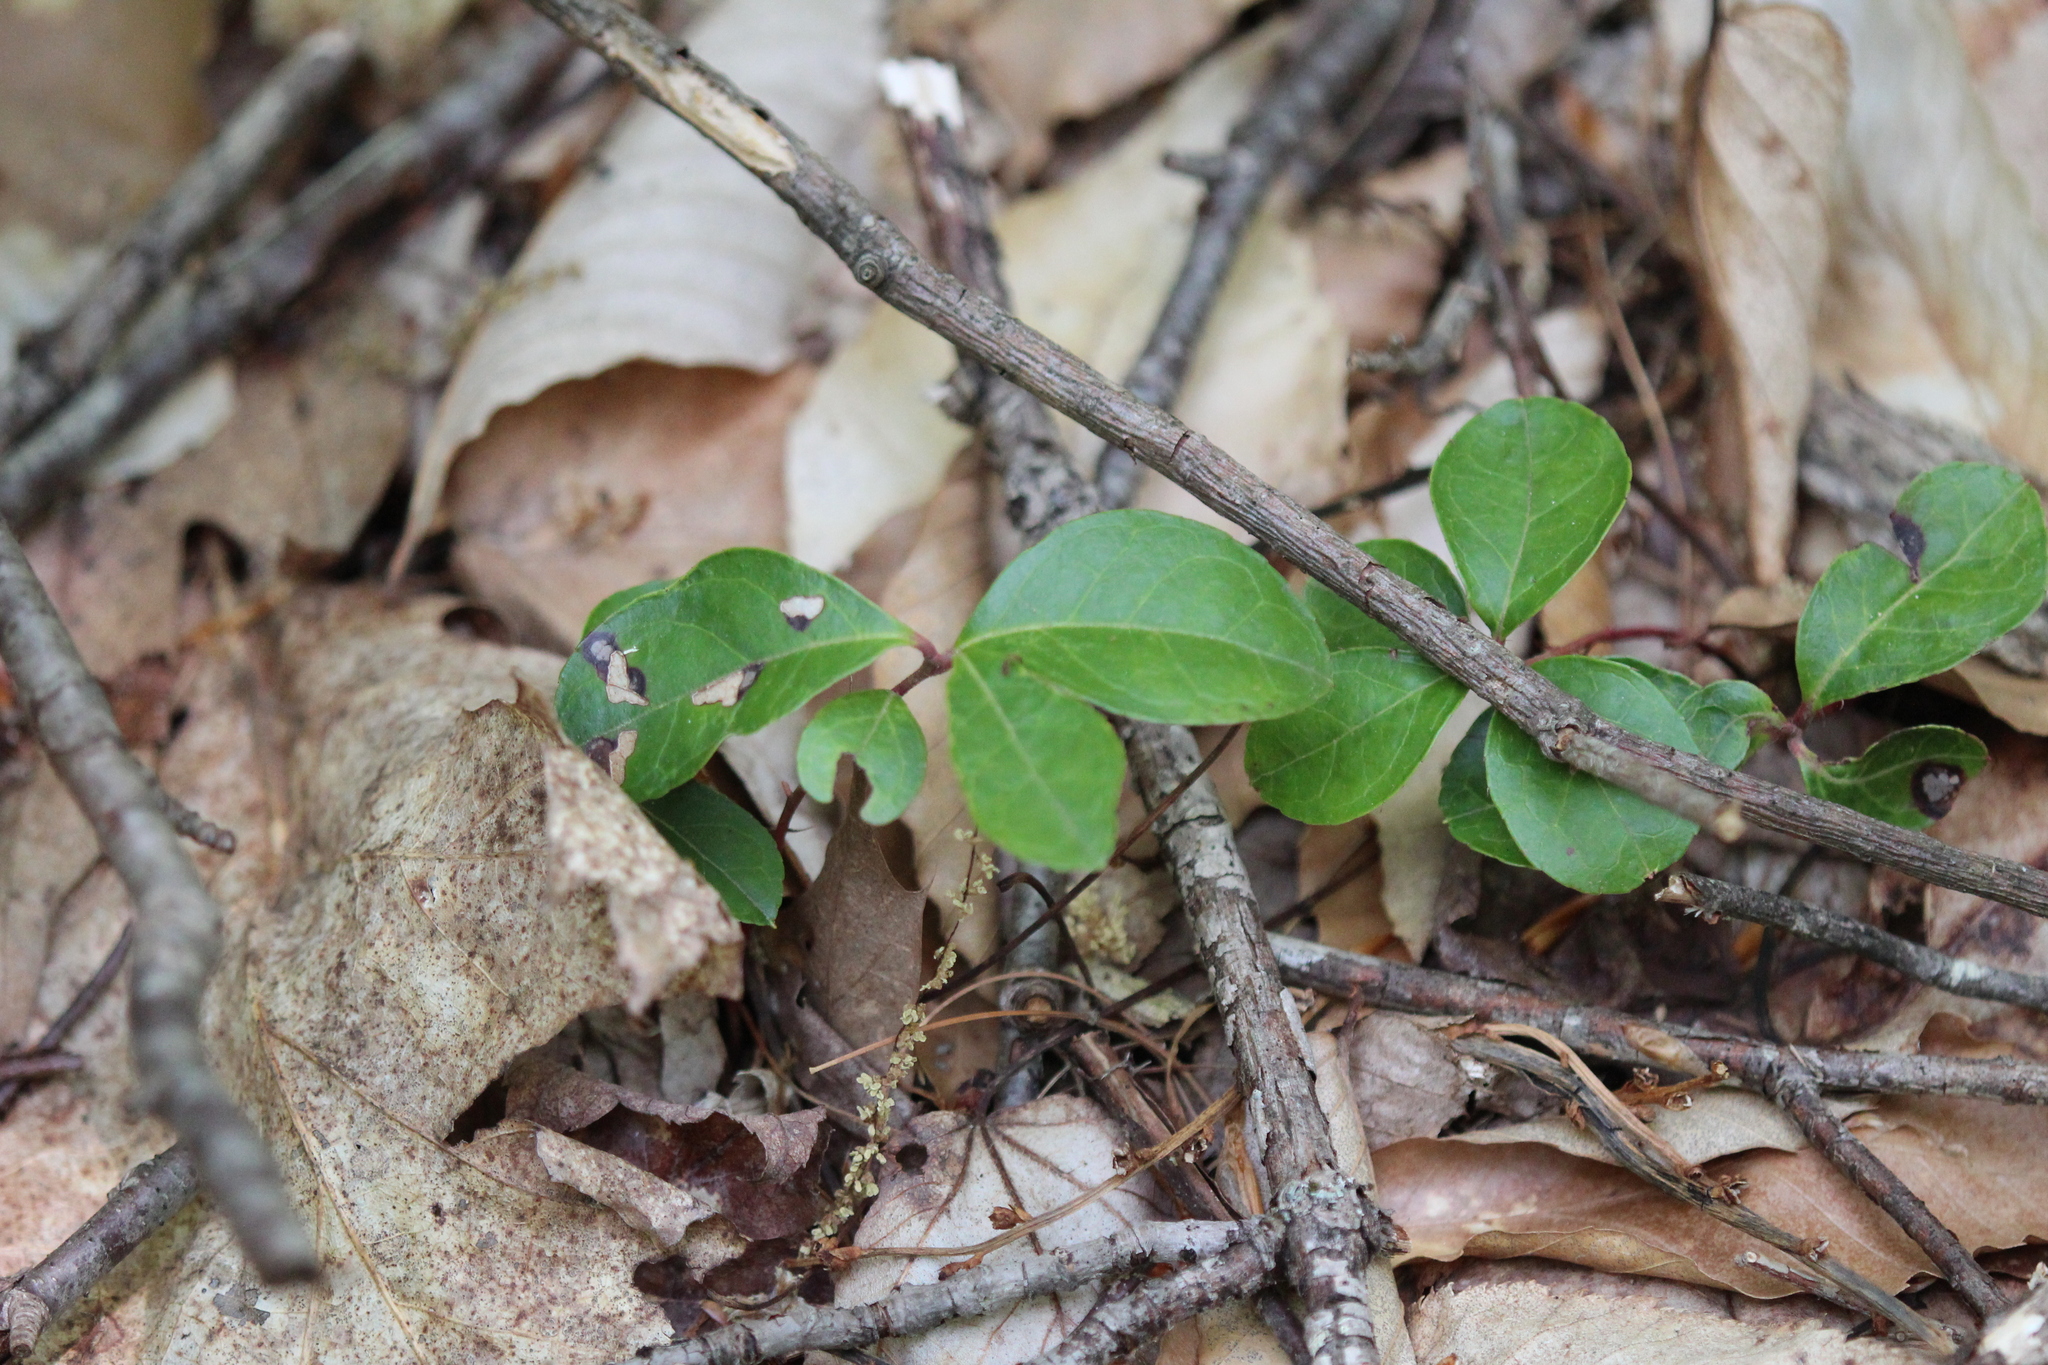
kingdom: Plantae
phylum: Tracheophyta
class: Magnoliopsida
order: Ericales
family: Ericaceae
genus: Gaultheria
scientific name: Gaultheria procumbens
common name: Checkerberry
